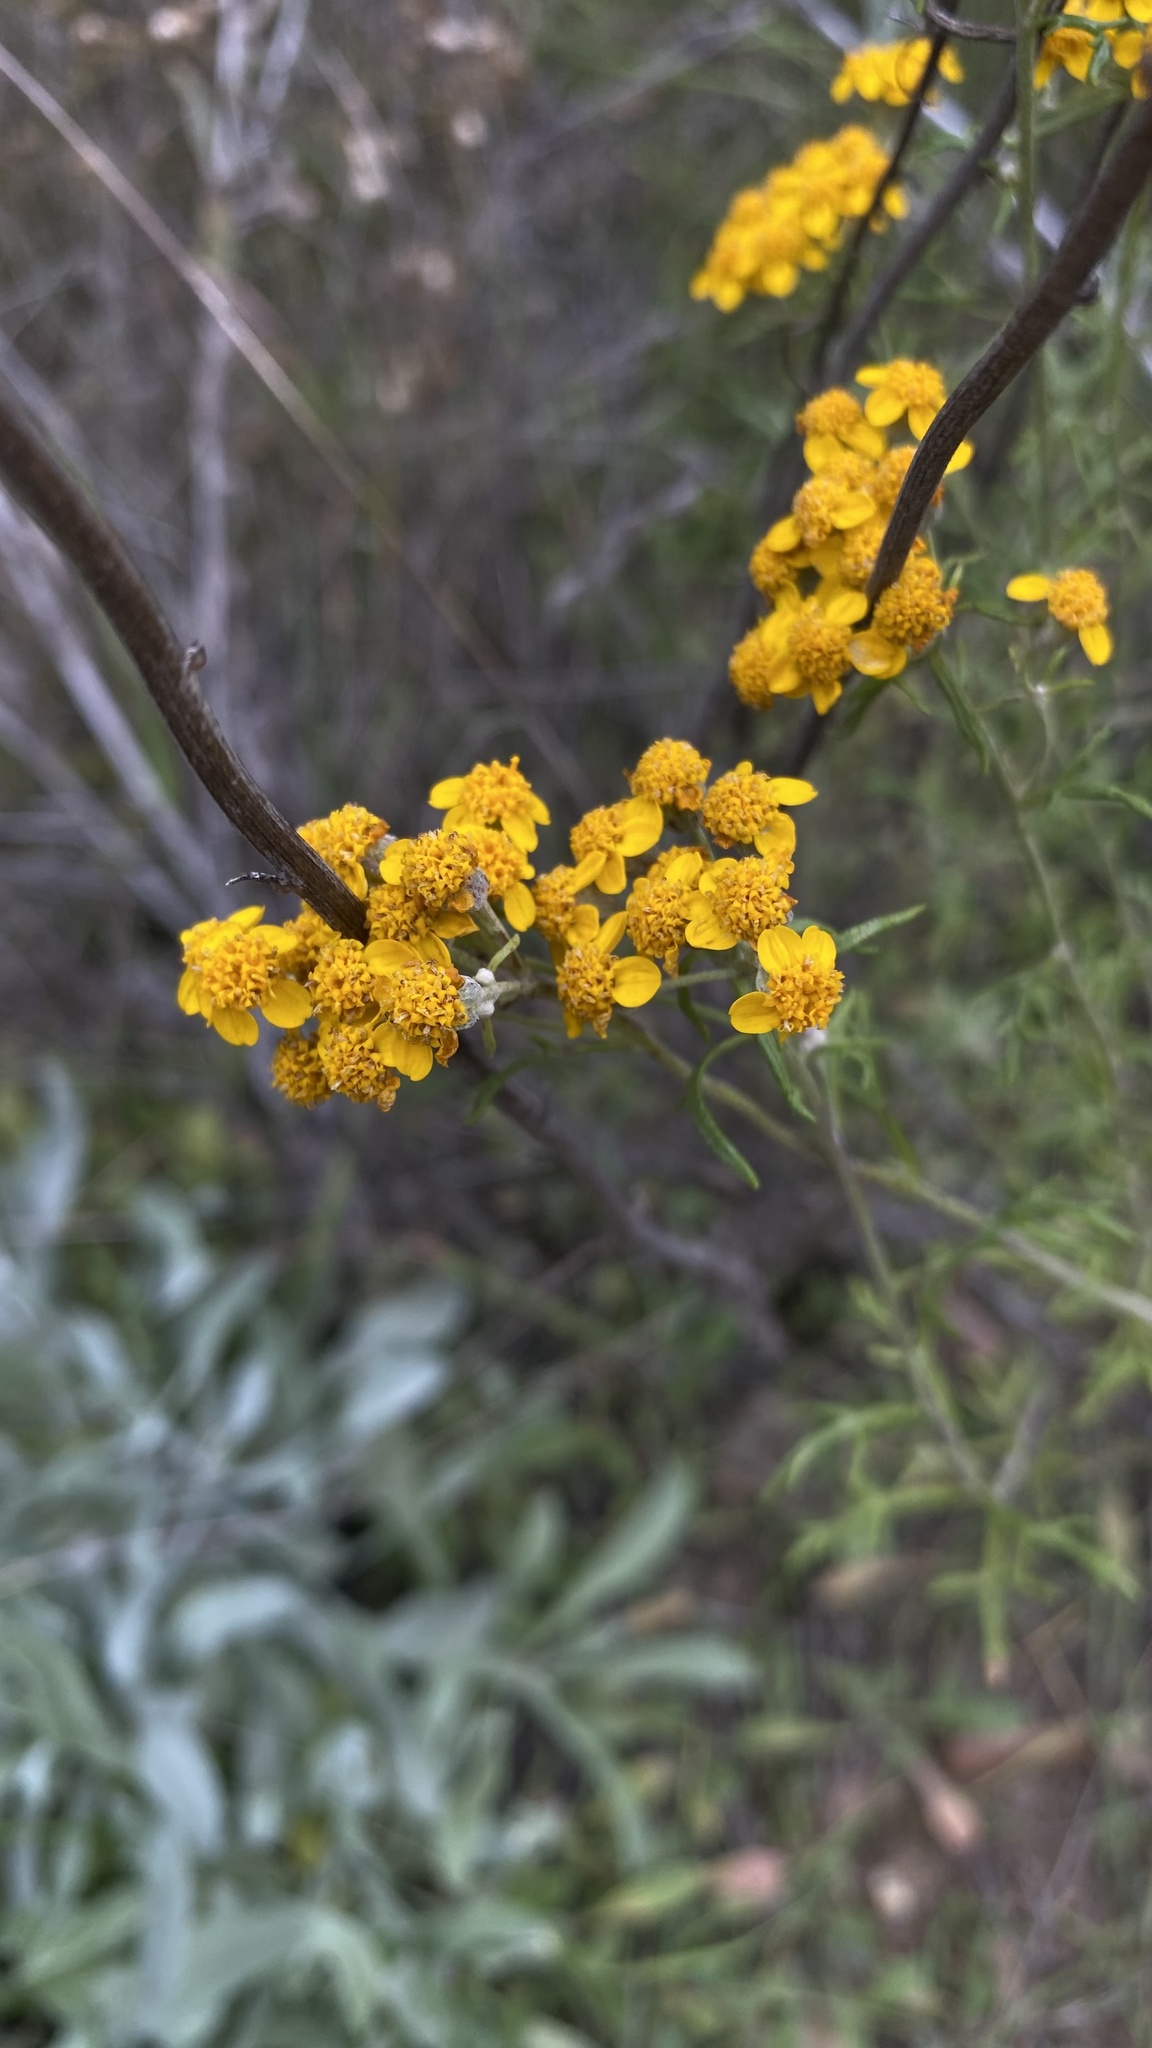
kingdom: Plantae
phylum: Tracheophyta
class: Magnoliopsida
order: Asterales
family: Asteraceae
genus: Eriophyllum
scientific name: Eriophyllum confertiflorum
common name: Golden-yarrow
